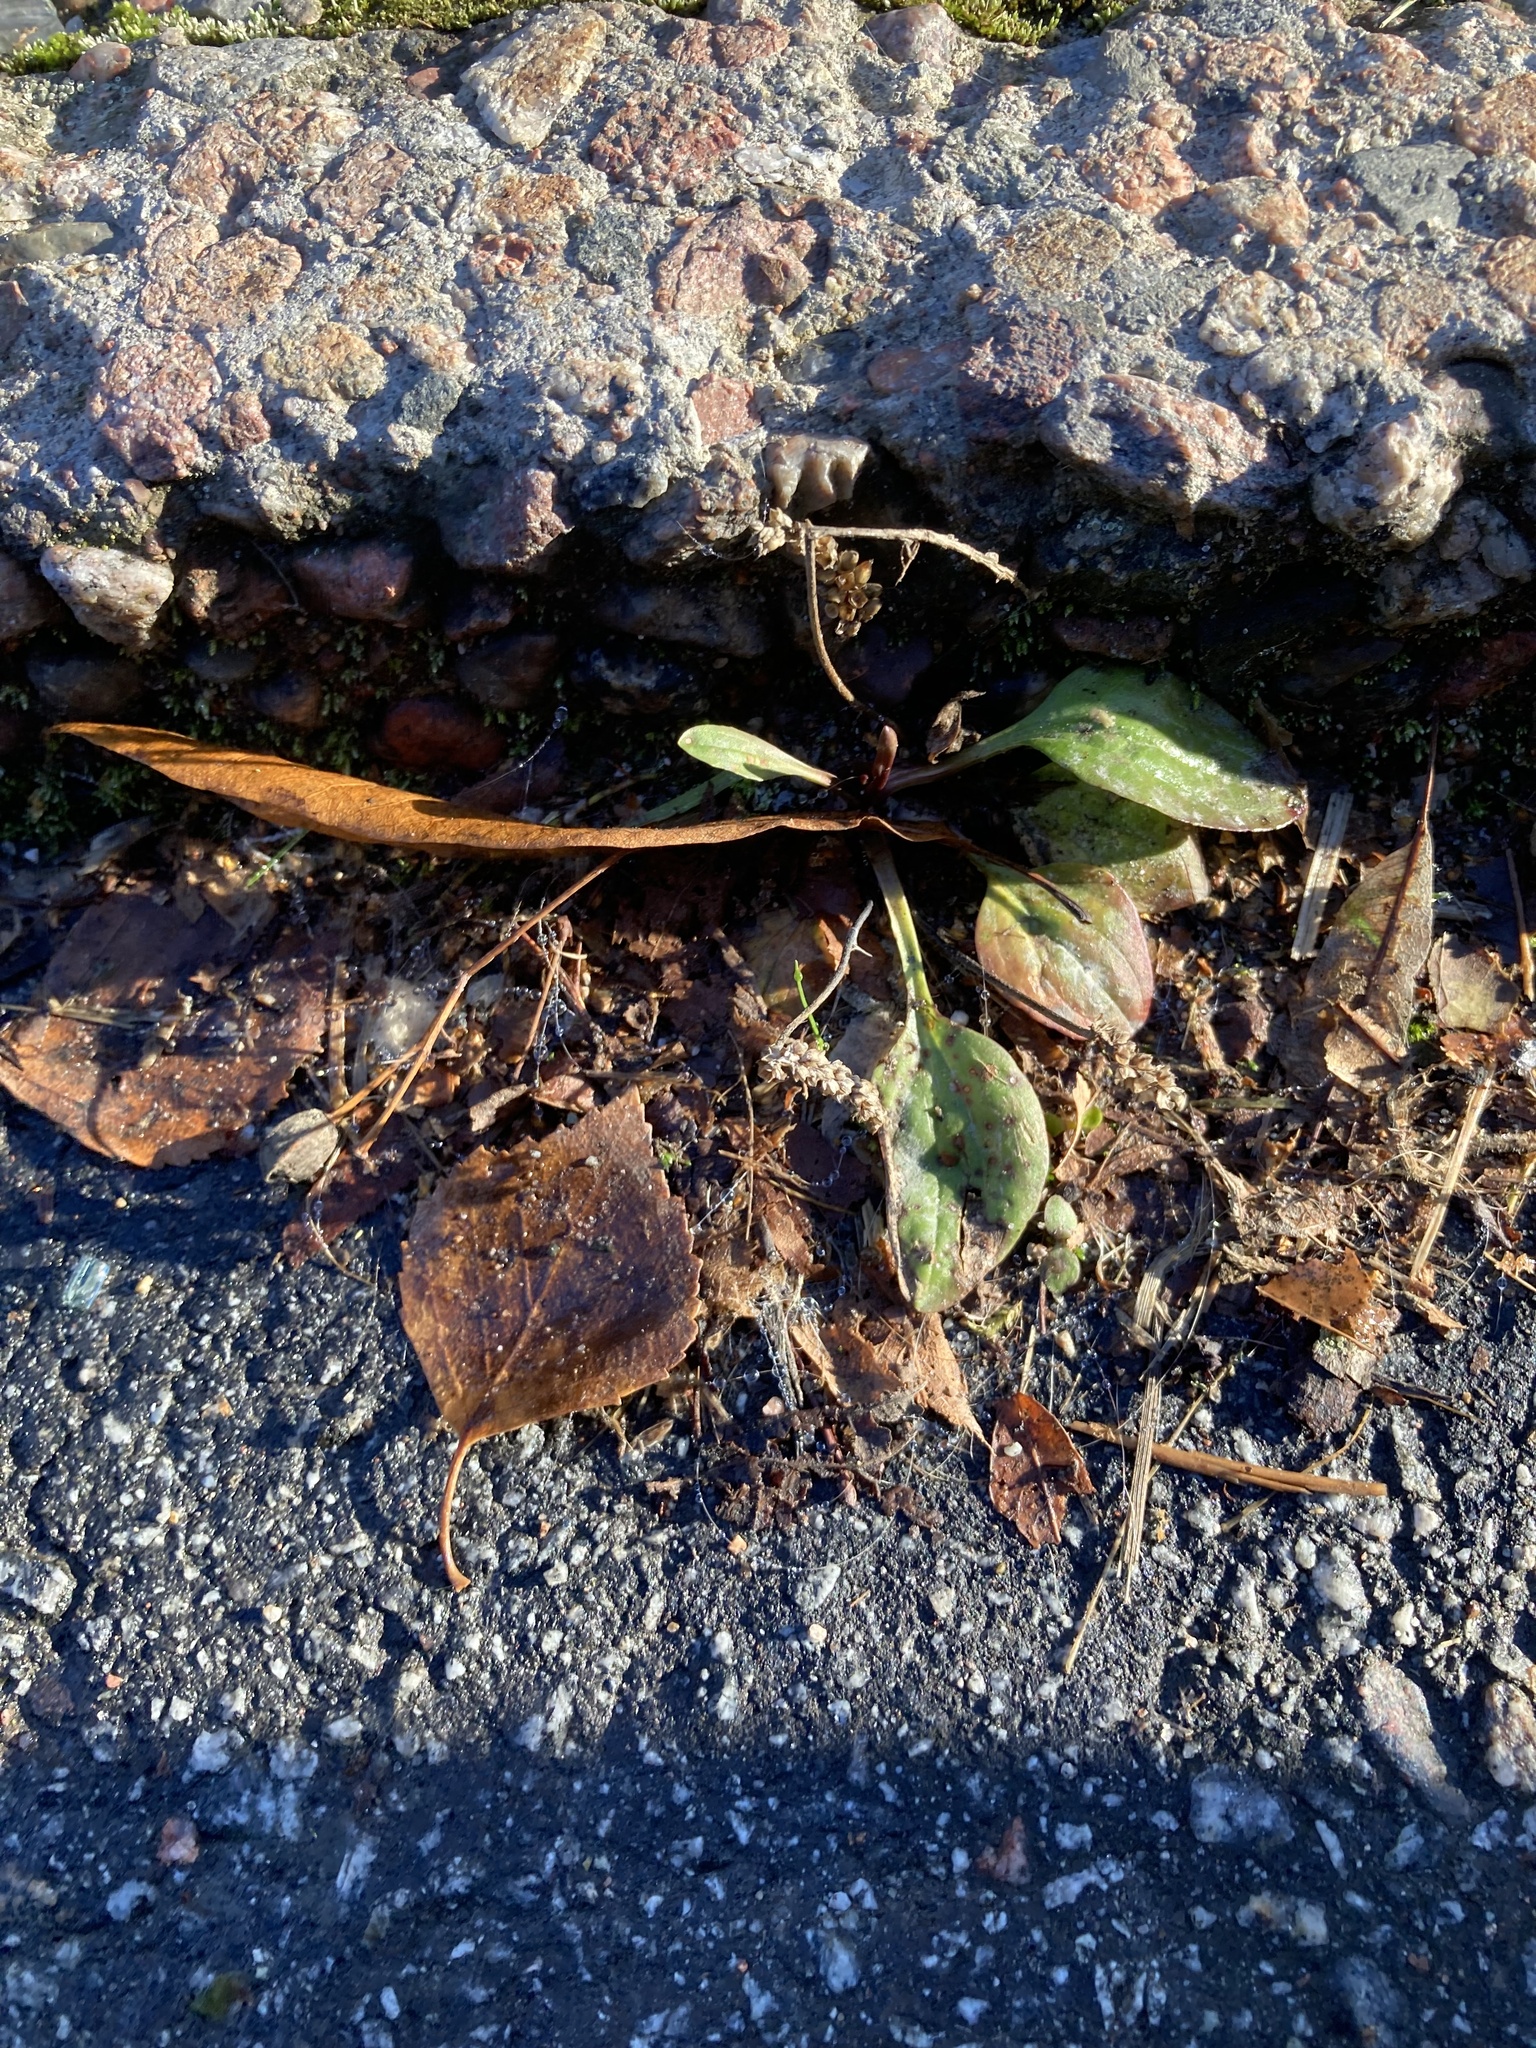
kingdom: Plantae
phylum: Tracheophyta
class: Magnoliopsida
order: Lamiales
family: Plantaginaceae
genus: Plantago
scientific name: Plantago major
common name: Common plantain
